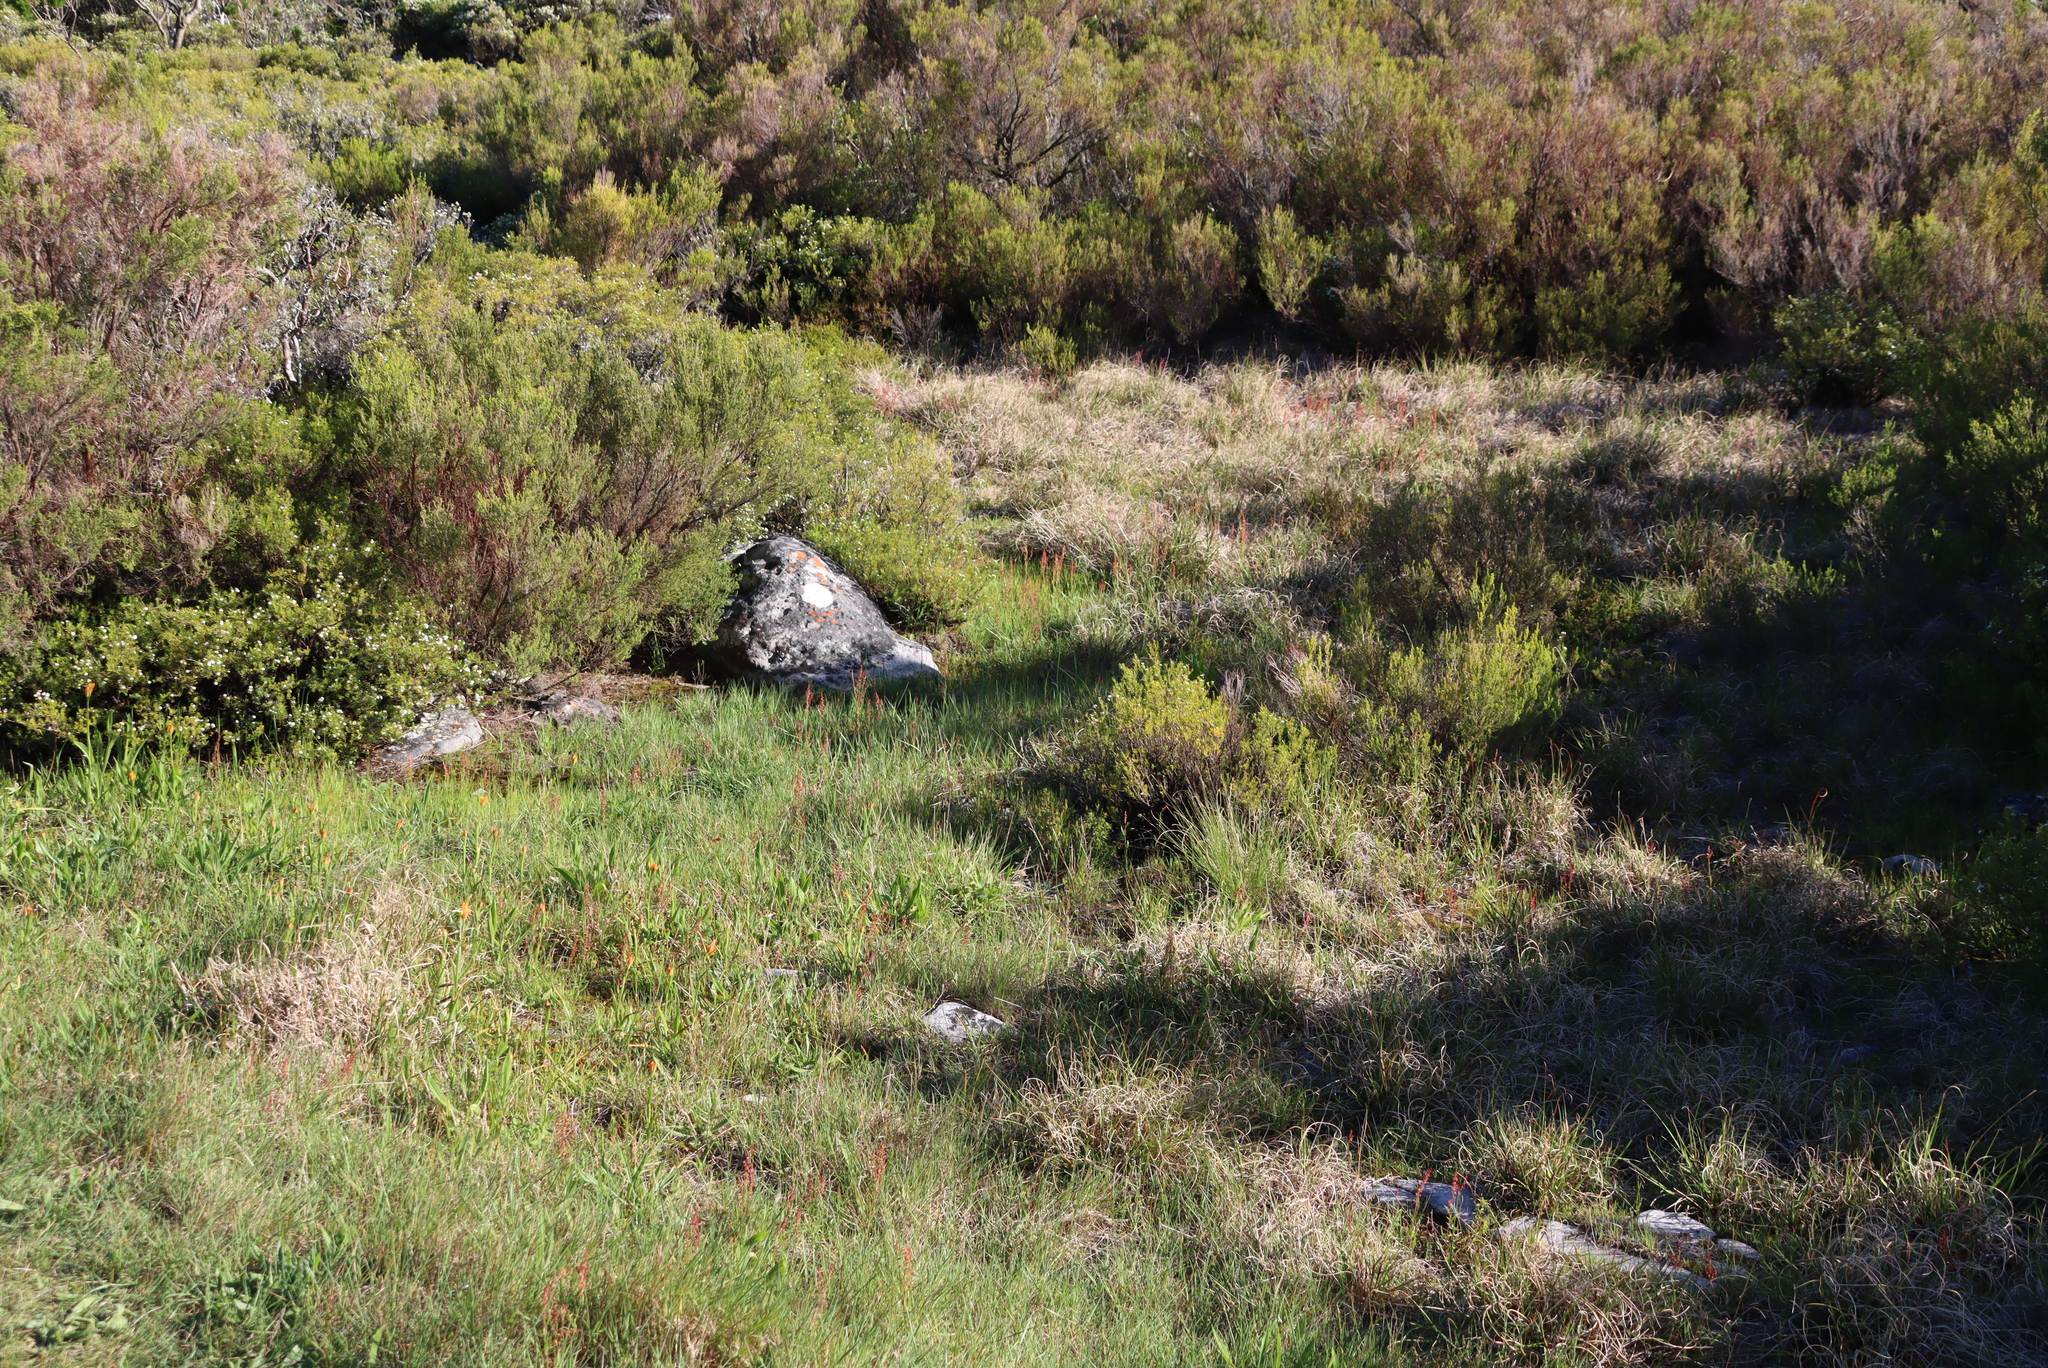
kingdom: Plantae
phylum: Tracheophyta
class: Liliopsida
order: Liliales
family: Colchicaceae
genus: Baeometra
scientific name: Baeometra uniflora
